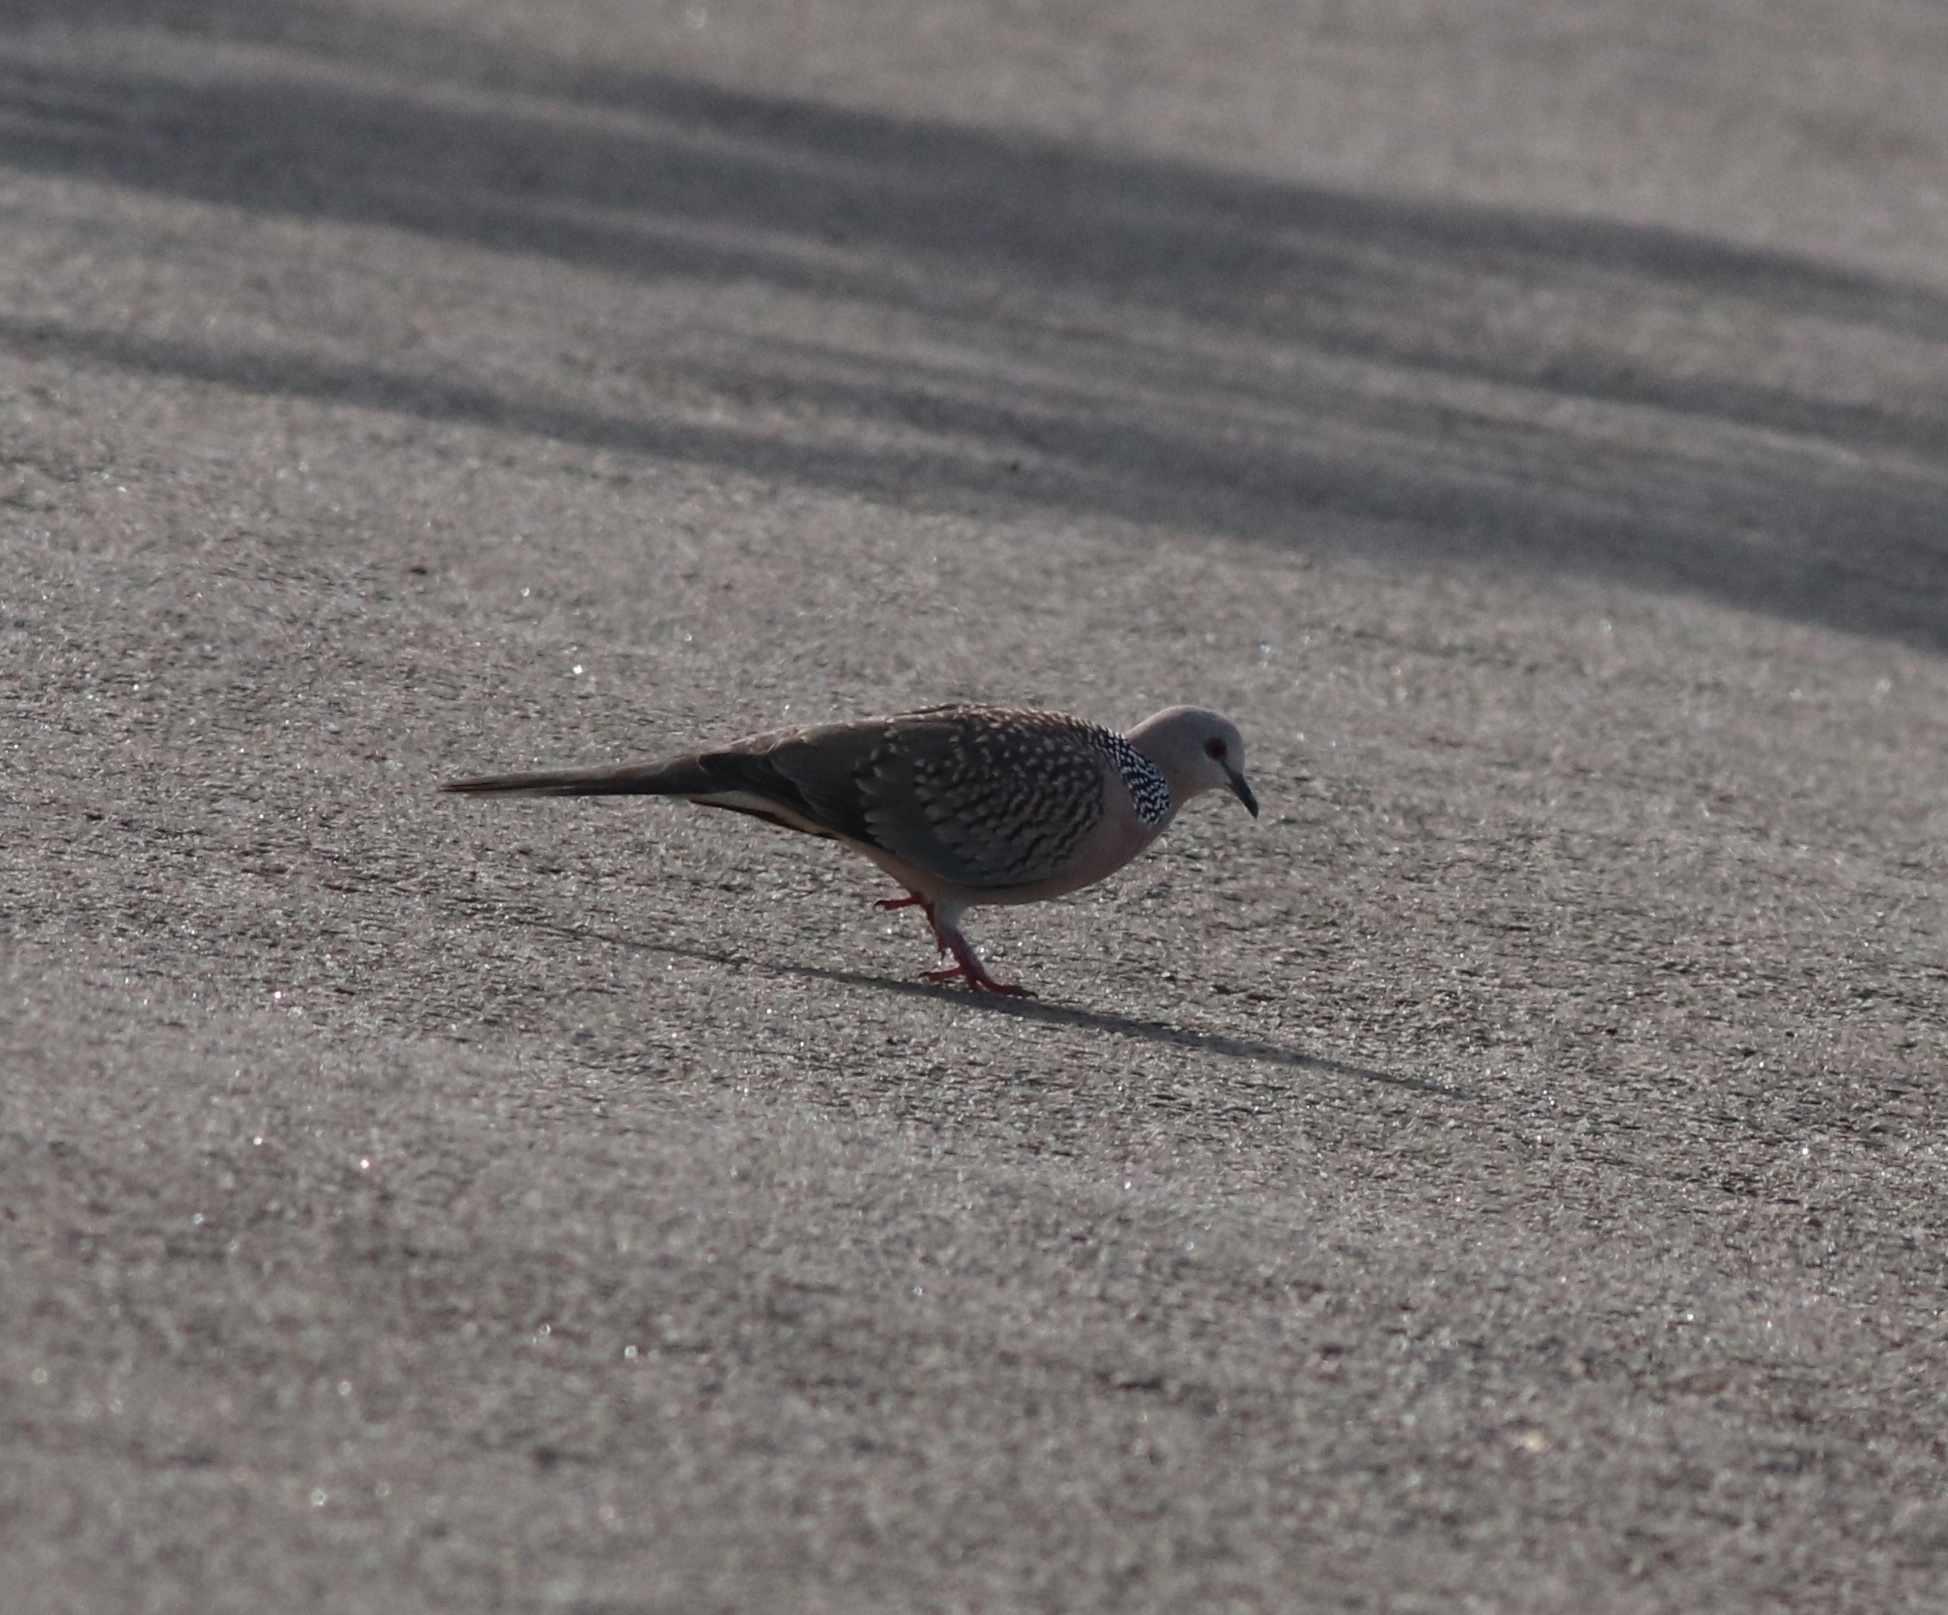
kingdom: Animalia
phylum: Chordata
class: Aves
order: Columbiformes
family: Columbidae
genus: Spilopelia
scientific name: Spilopelia chinensis
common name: Spotted dove
